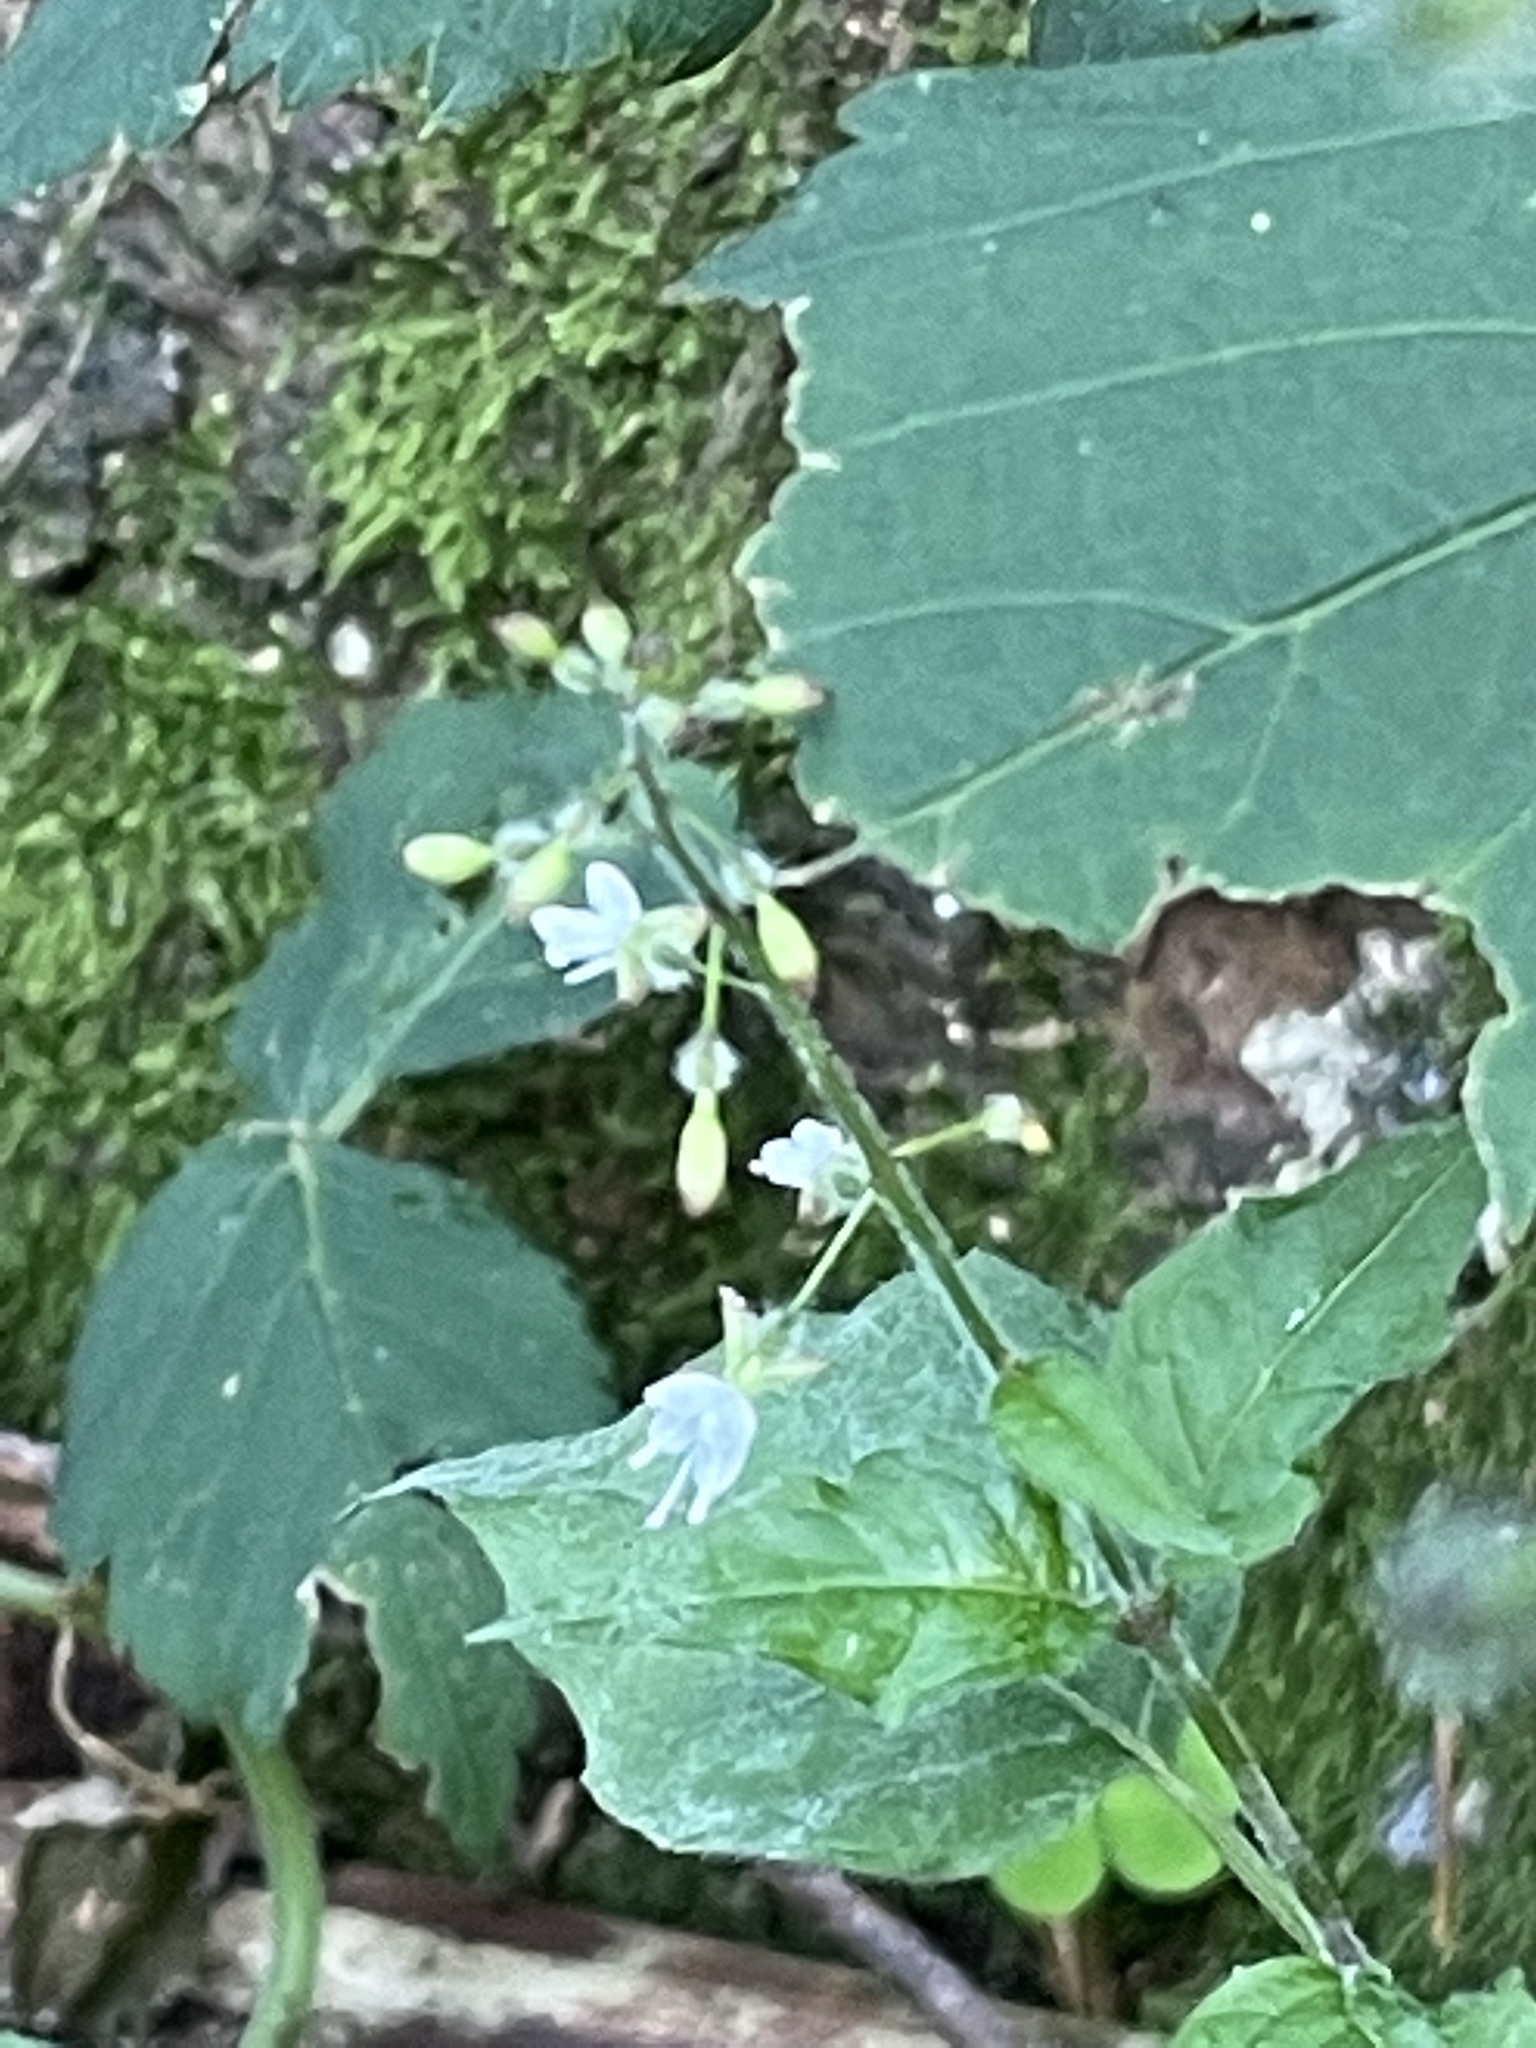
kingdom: Plantae
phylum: Tracheophyta
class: Magnoliopsida
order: Myrtales
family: Onagraceae
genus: Circaea
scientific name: Circaea lutetiana
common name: Enchanter's-nightshade
